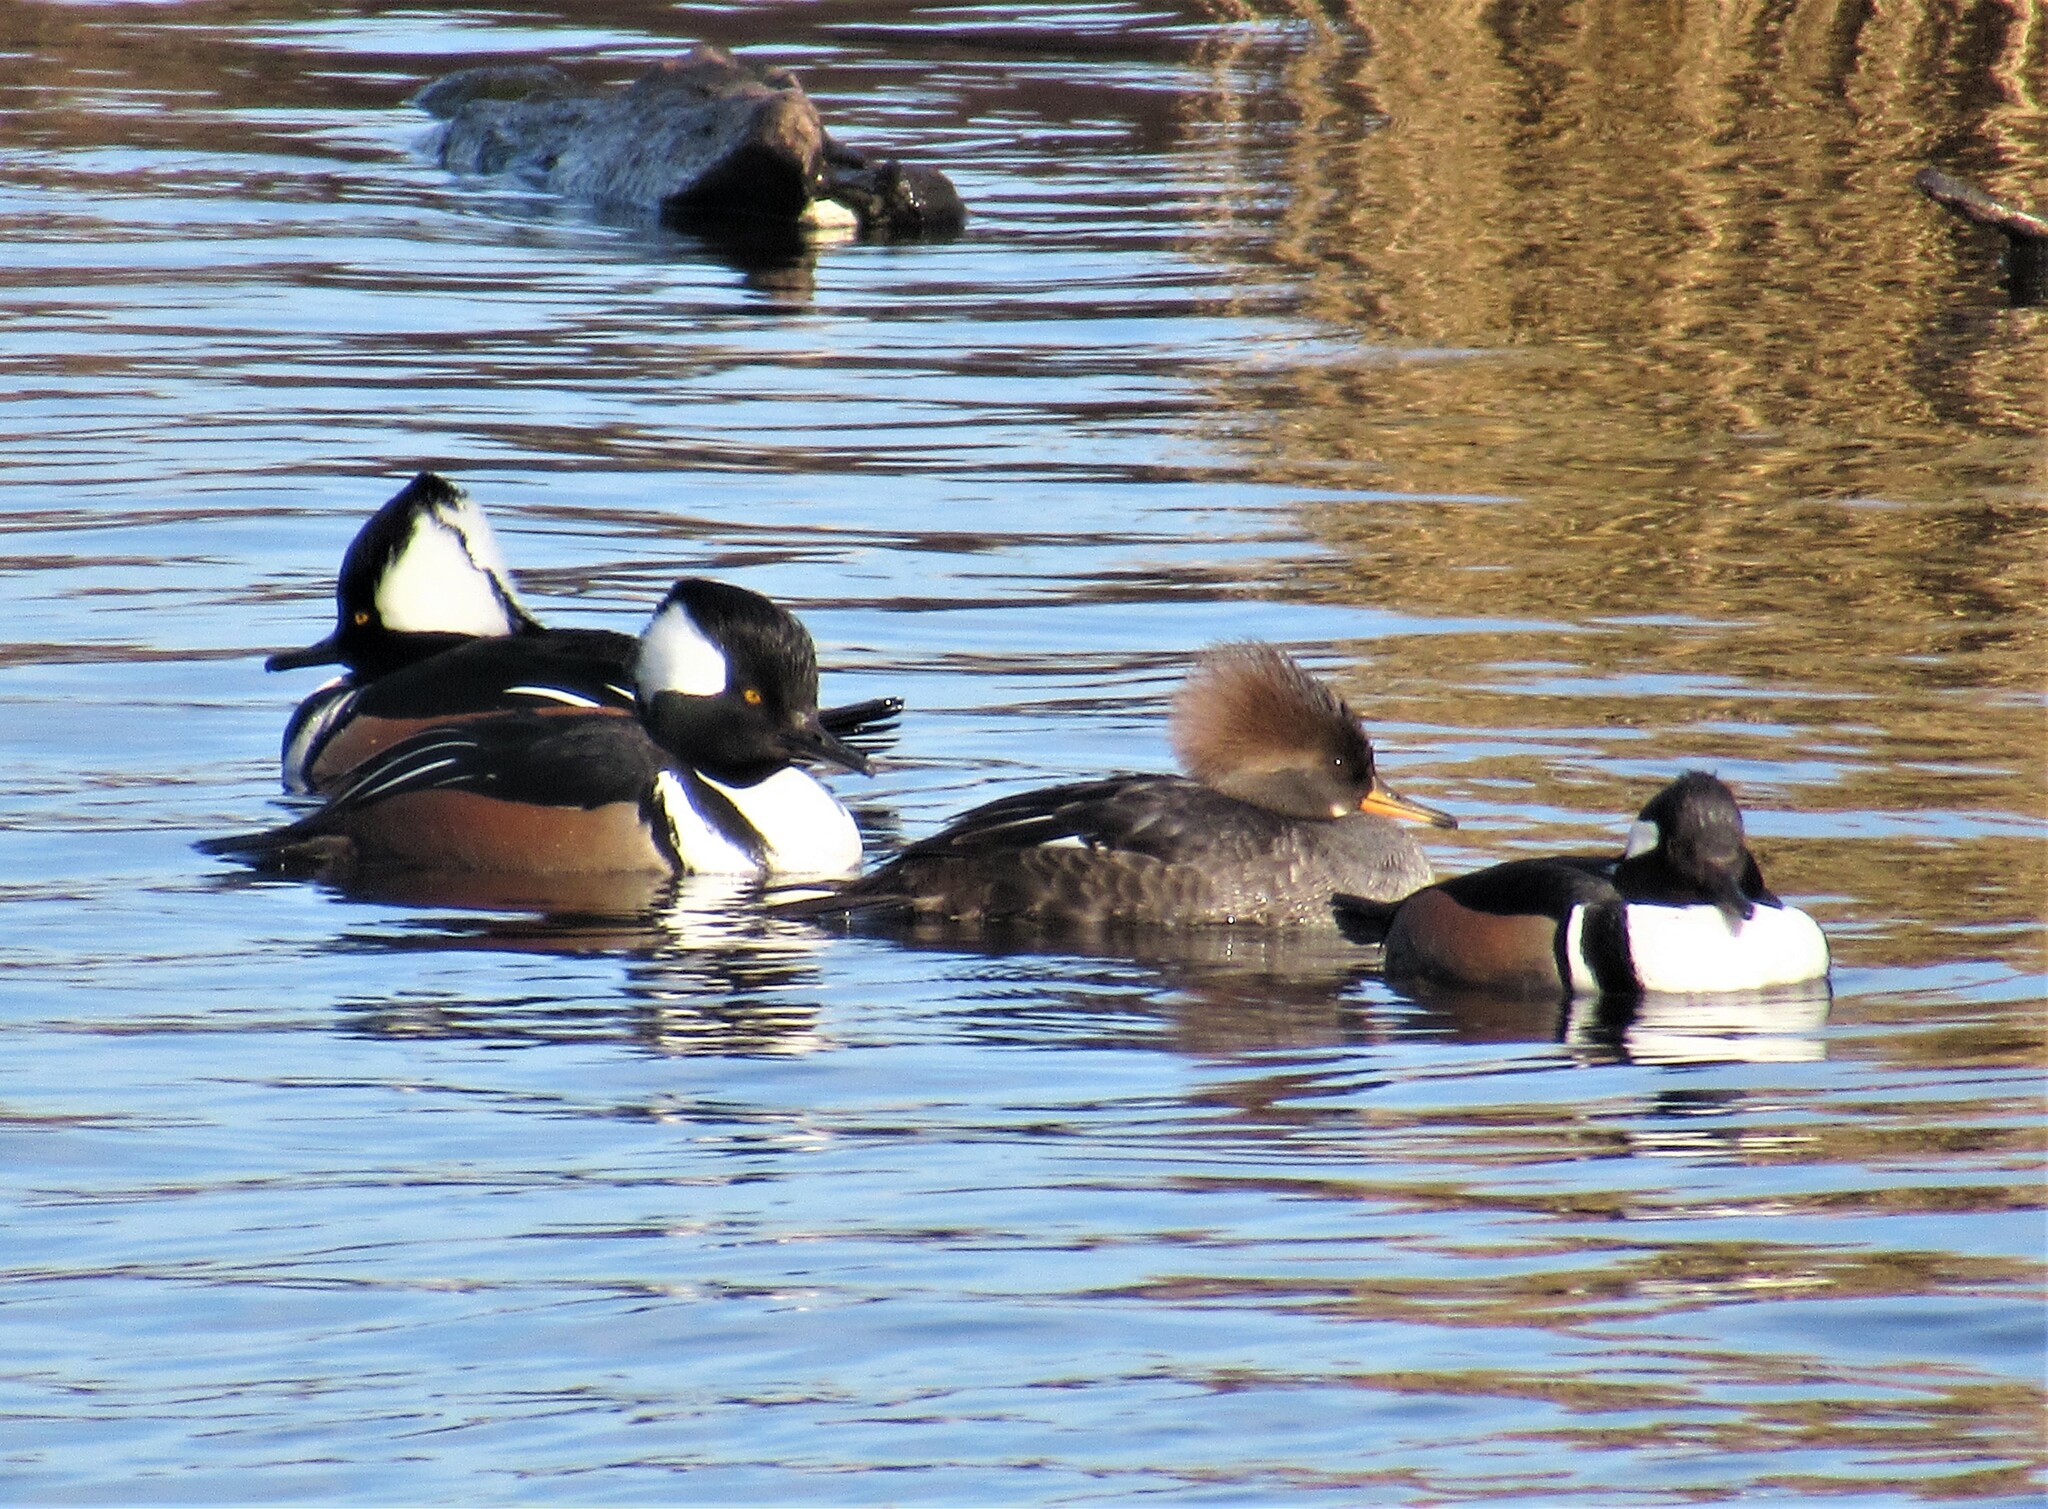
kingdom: Animalia
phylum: Chordata
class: Aves
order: Anseriformes
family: Anatidae
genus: Lophodytes
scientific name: Lophodytes cucullatus
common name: Hooded merganser
